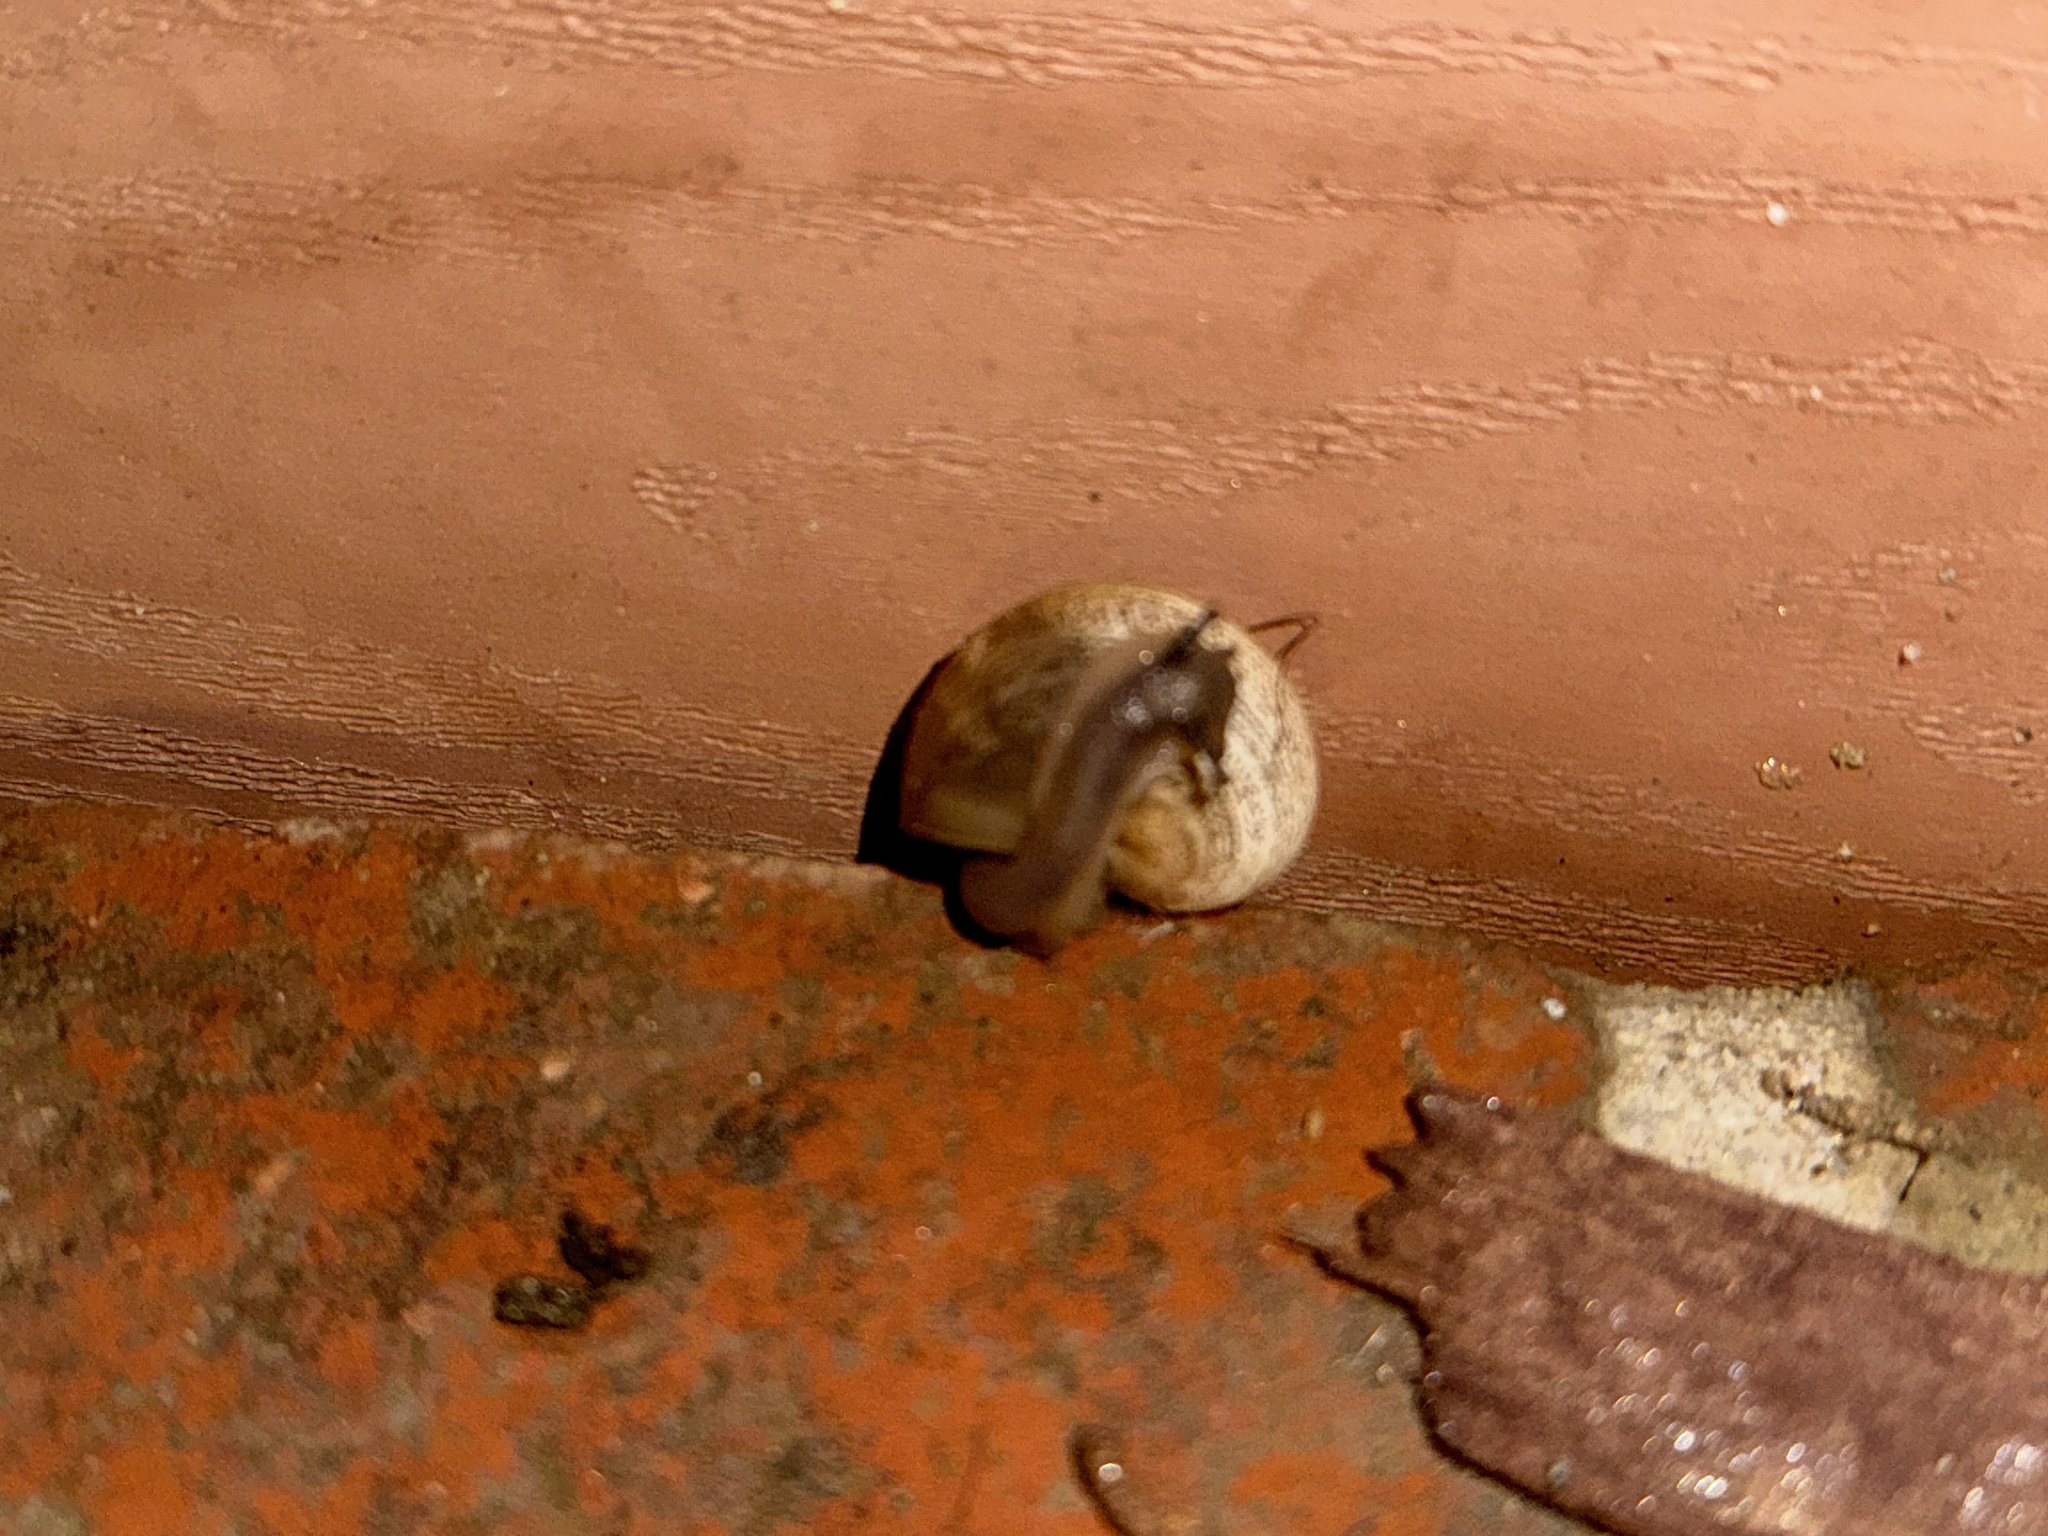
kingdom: Animalia
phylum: Mollusca
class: Gastropoda
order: Stylommatophora
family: Helicidae
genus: Otala
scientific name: Otala lactea
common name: Milk snail
